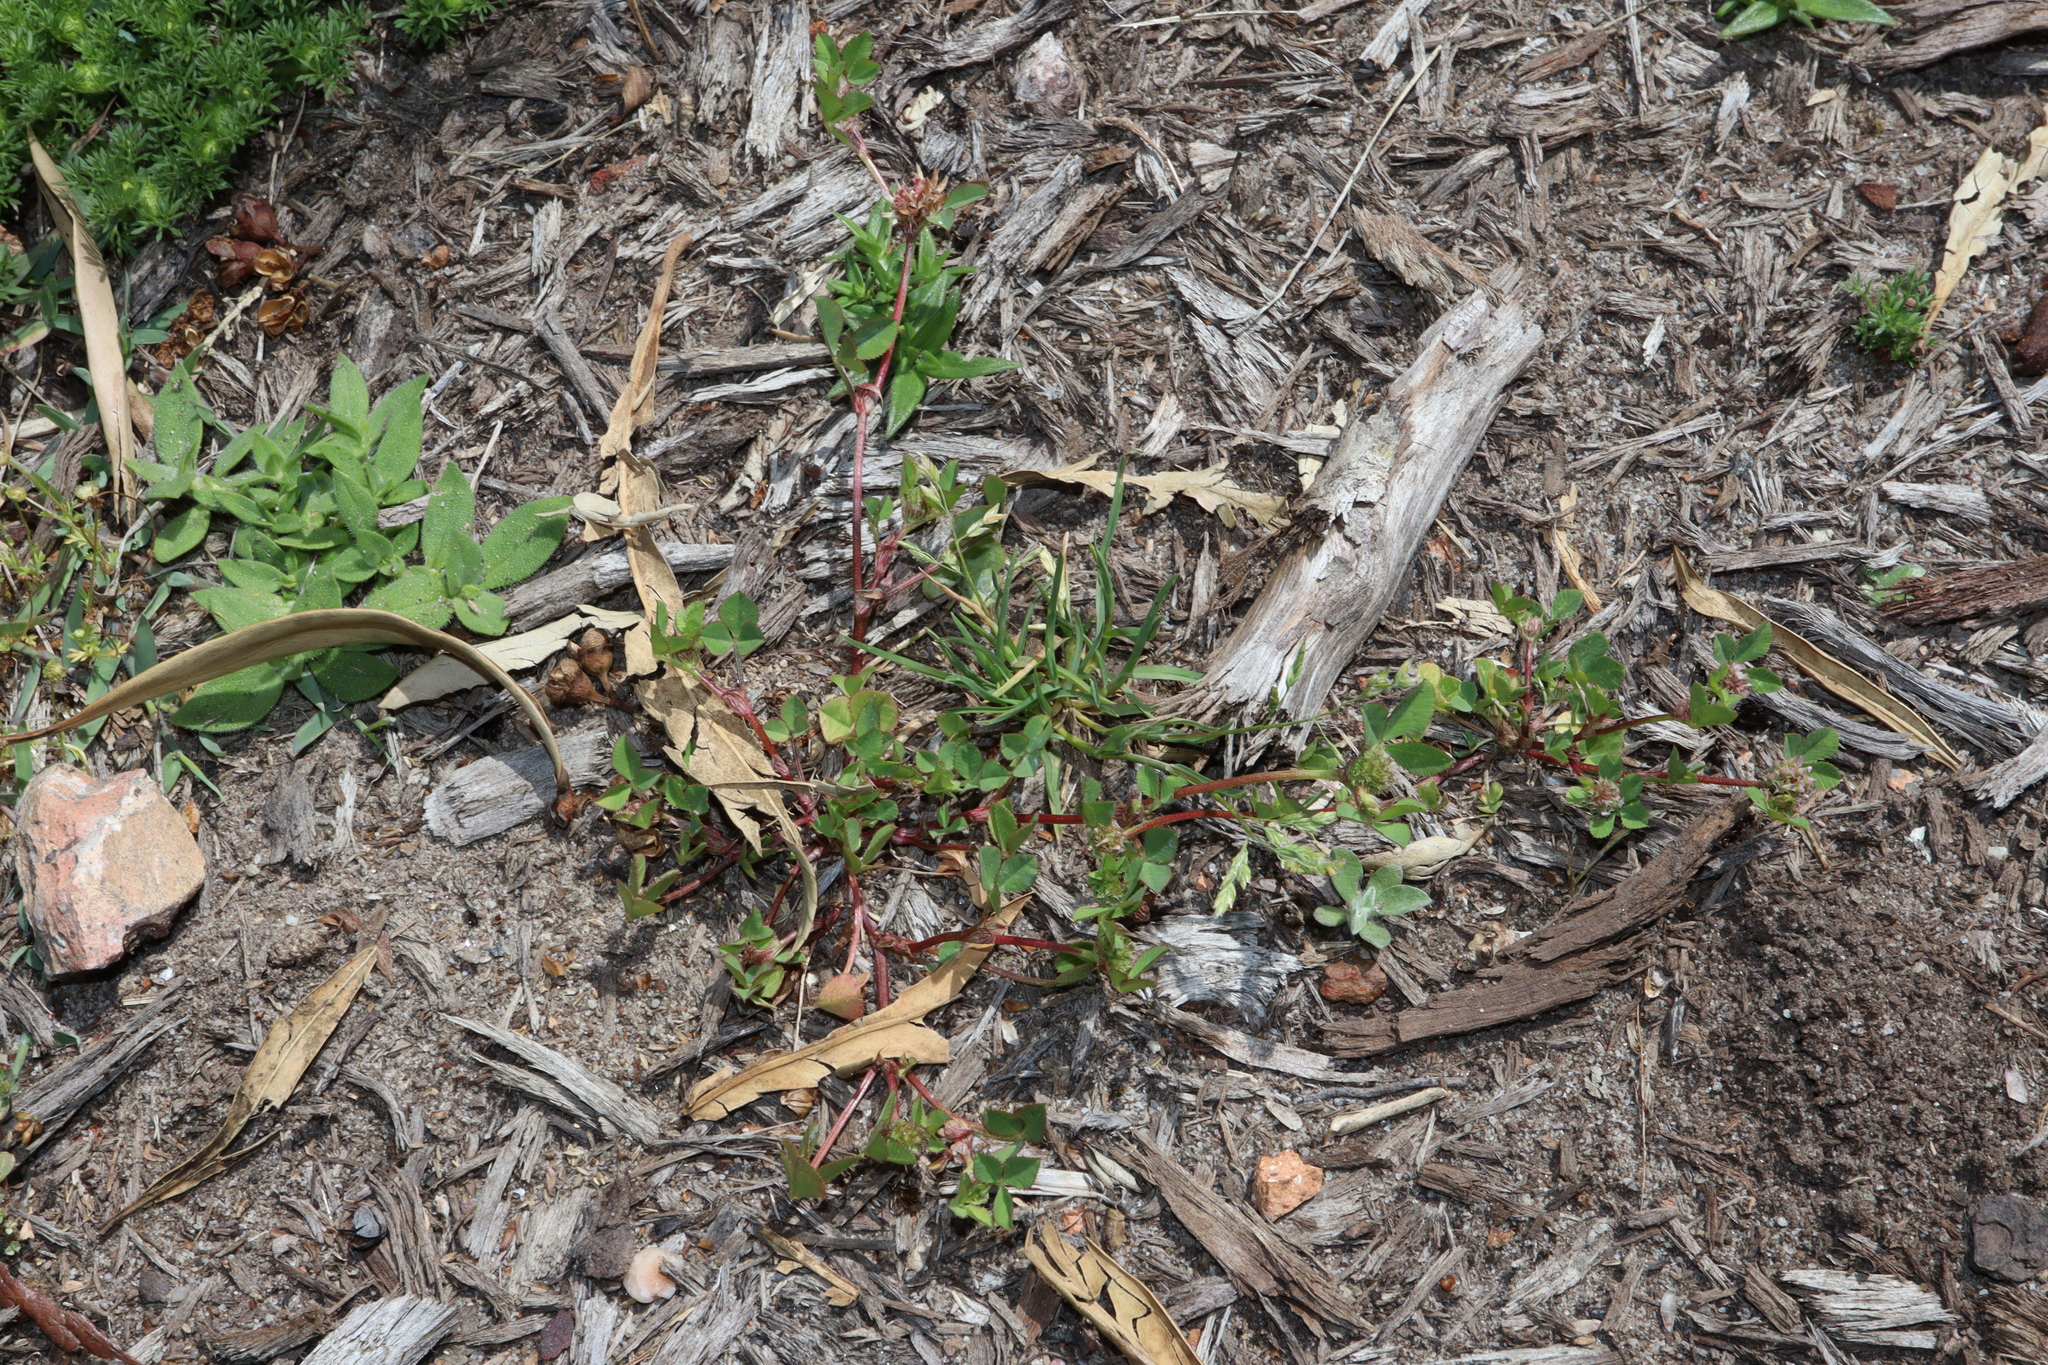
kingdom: Plantae
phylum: Tracheophyta
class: Magnoliopsida
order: Fabales
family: Fabaceae
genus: Trifolium
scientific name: Trifolium glomeratum
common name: Clustered clover
